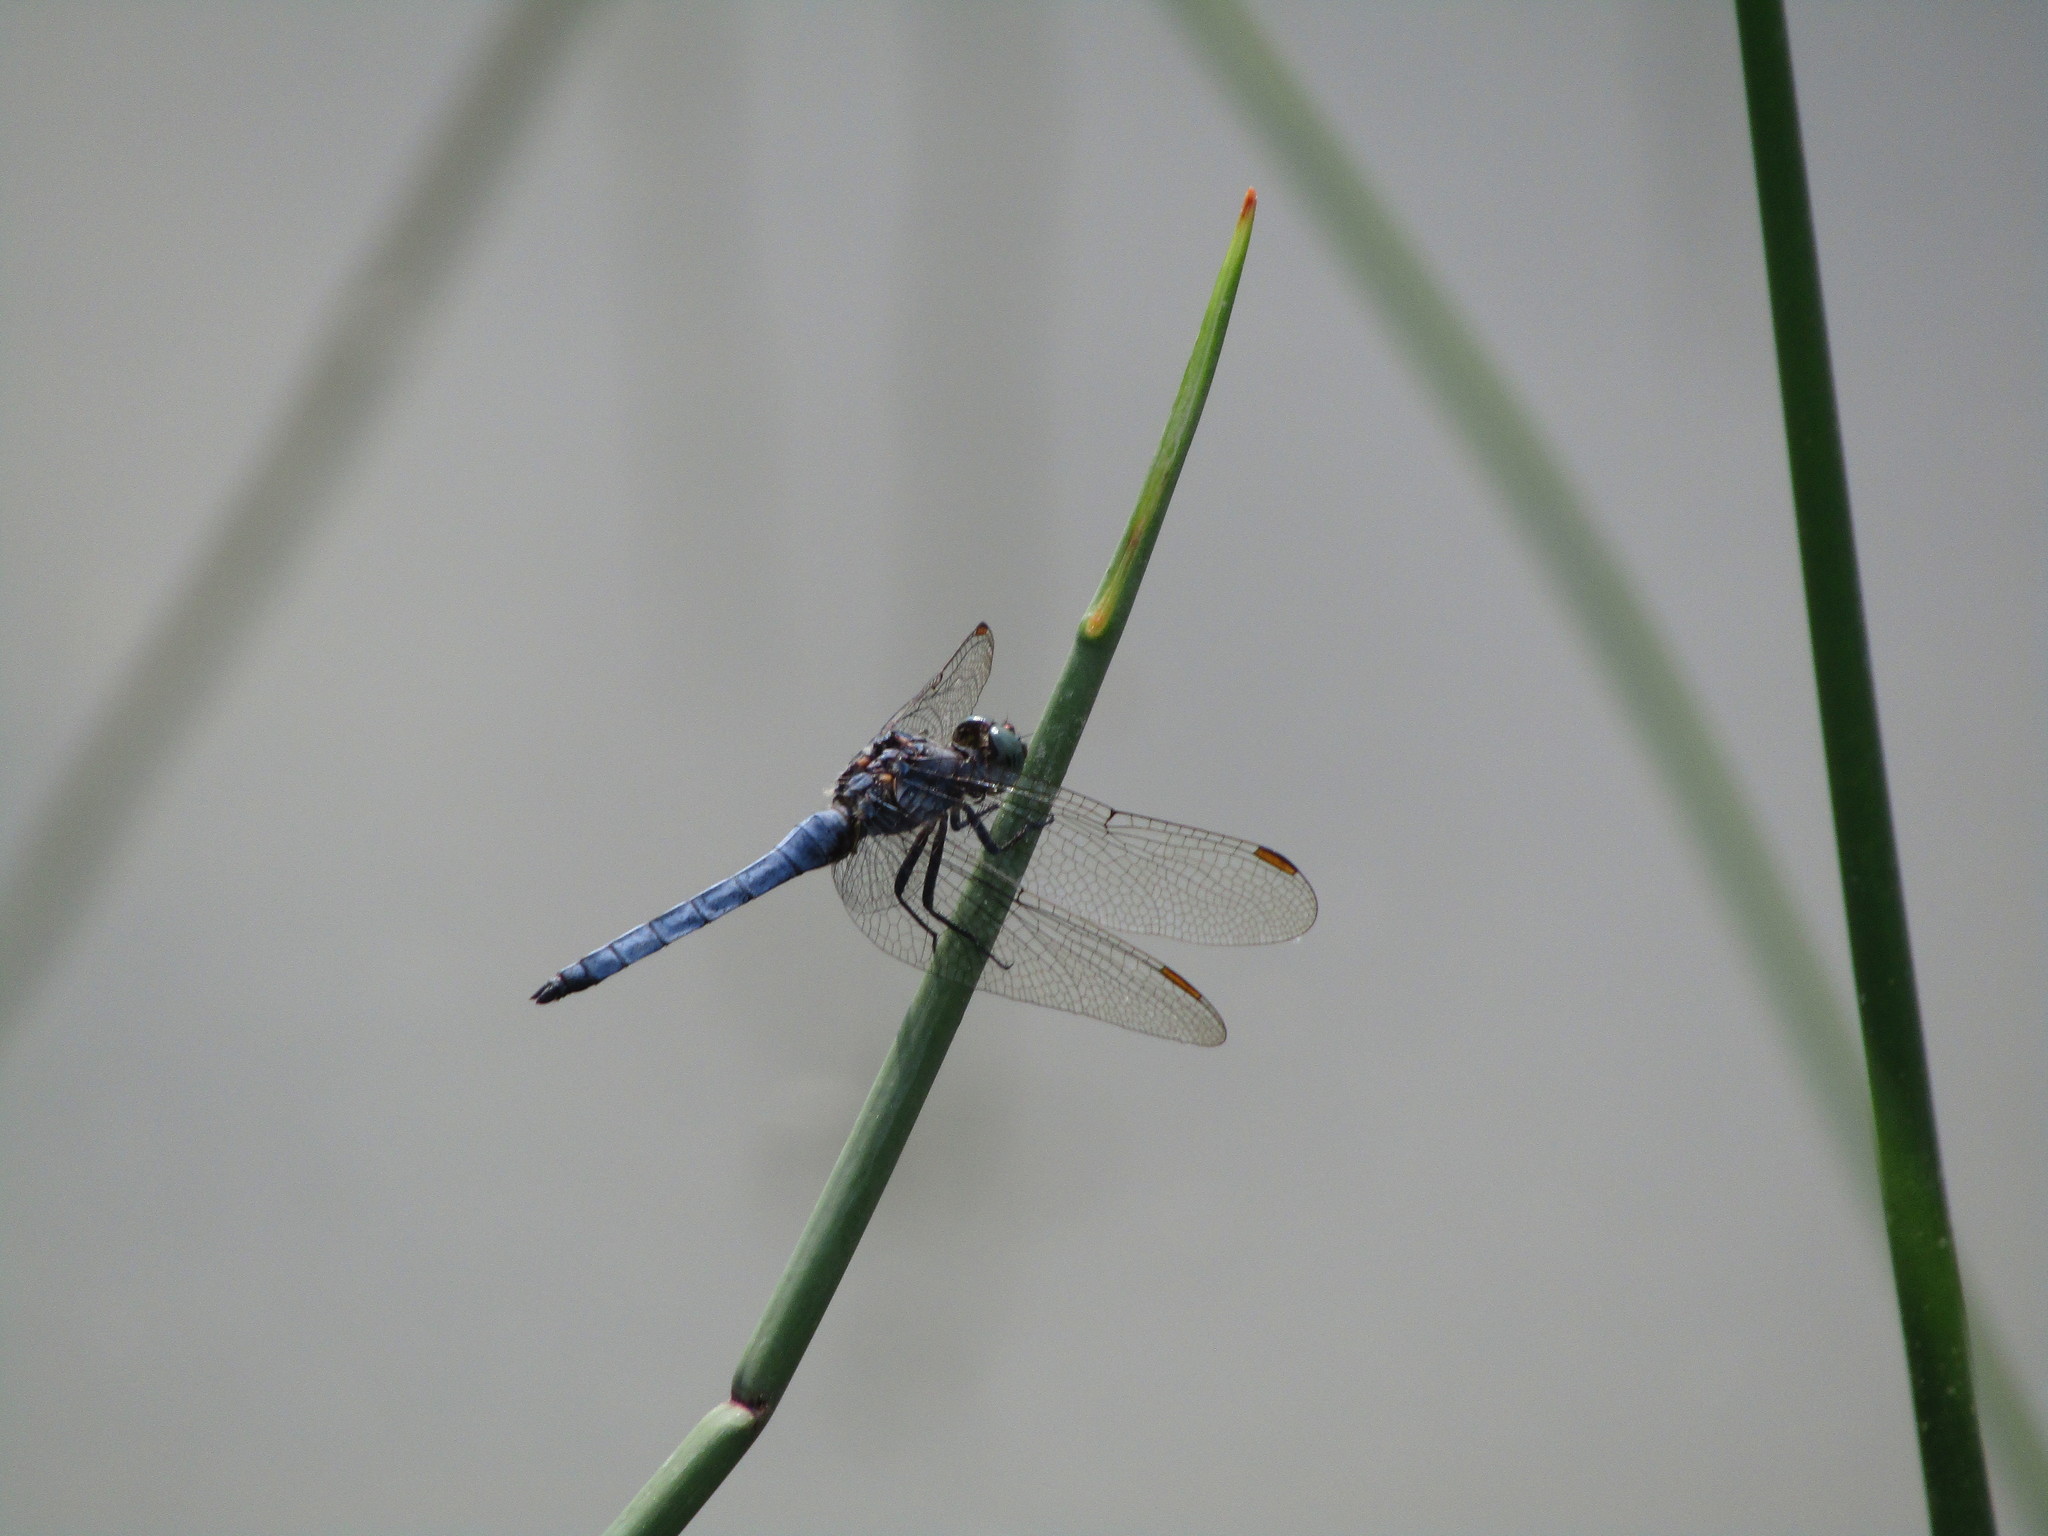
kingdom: Animalia
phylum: Arthropoda
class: Insecta
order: Odonata
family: Libellulidae
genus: Orthetrum
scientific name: Orthetrum coerulescens
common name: Keeled skimmer
